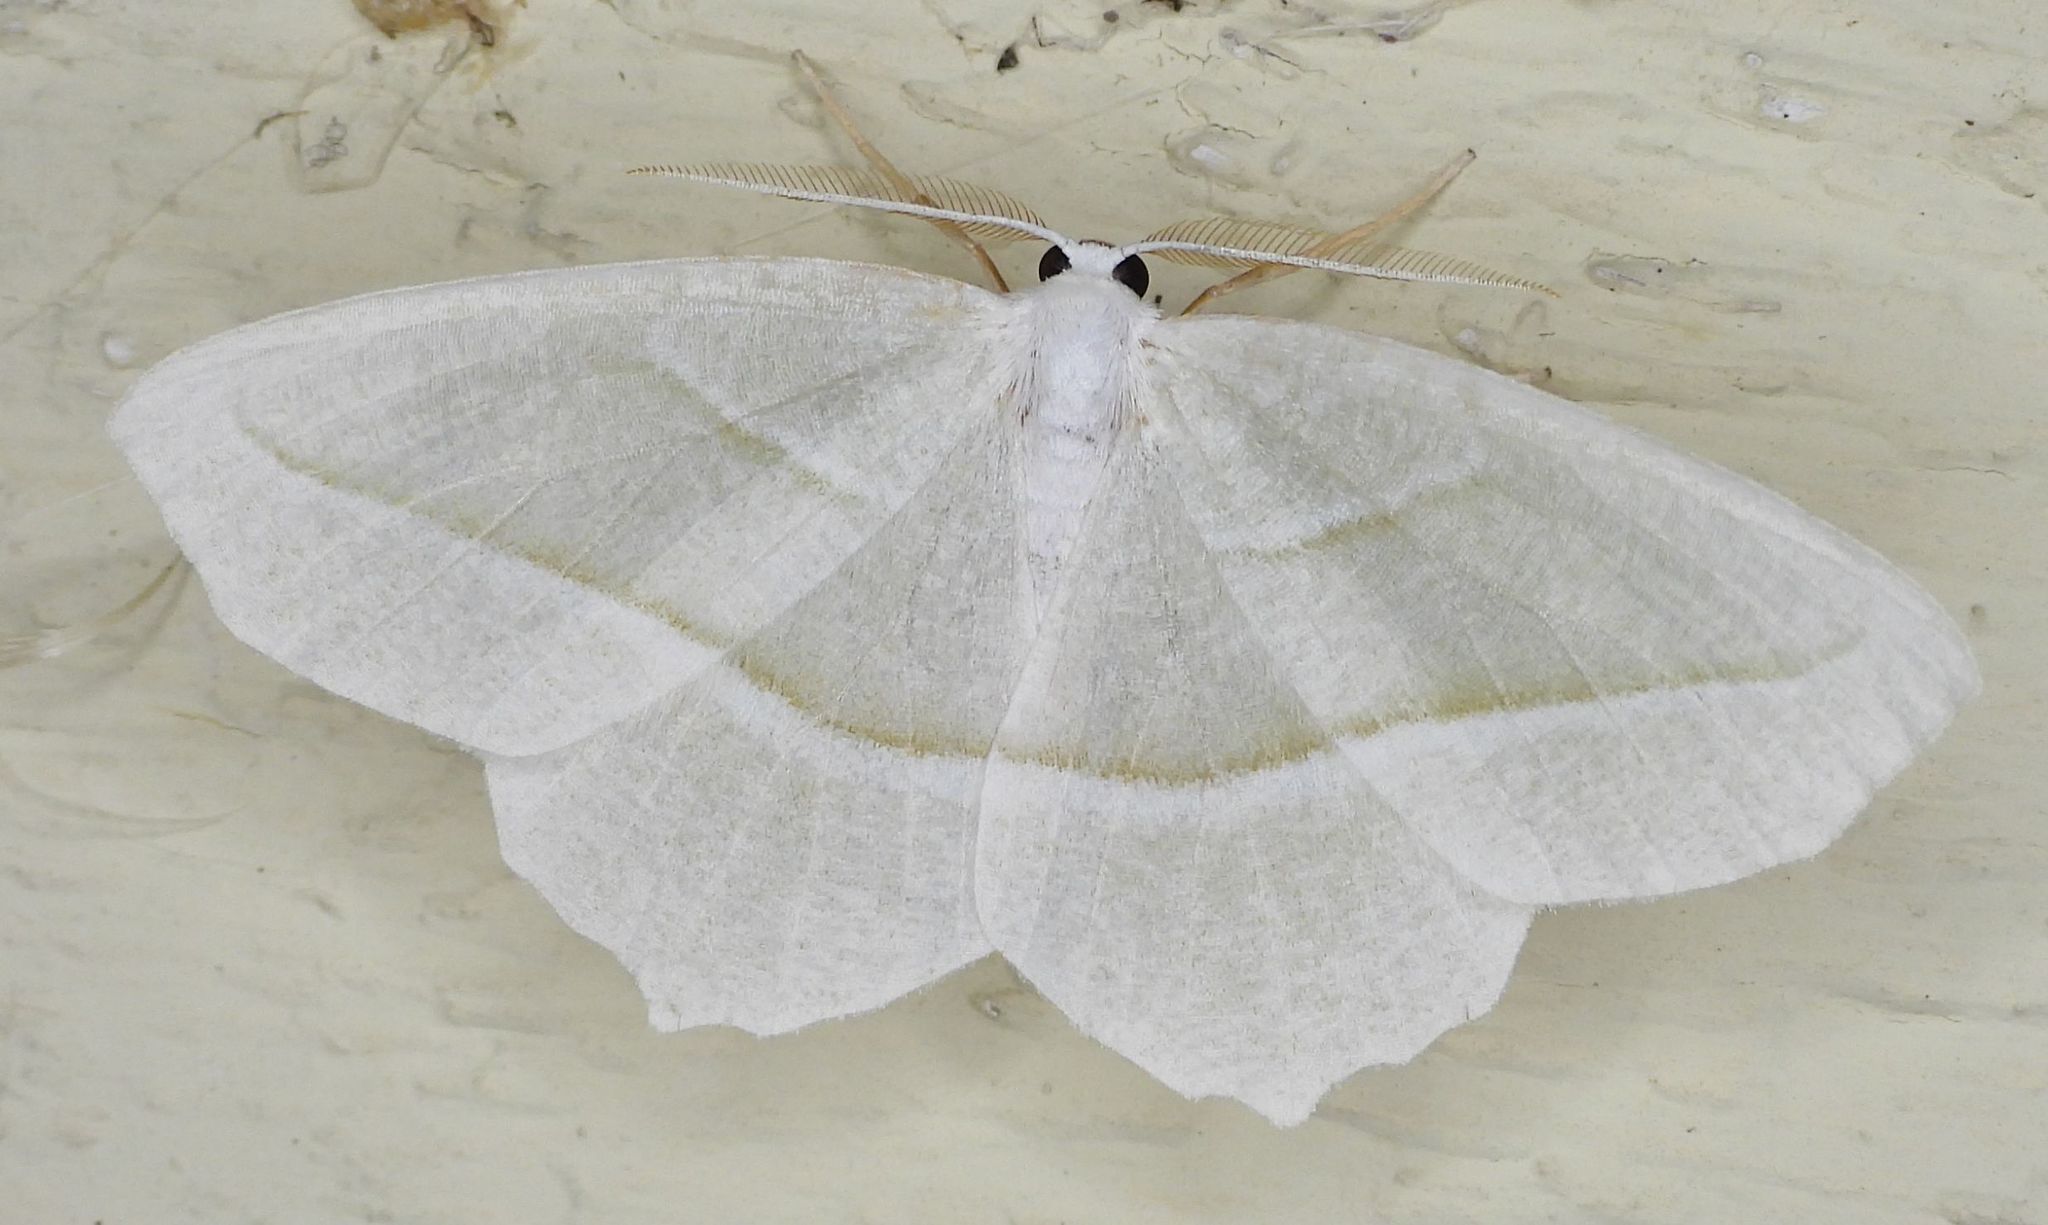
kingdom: Animalia
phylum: Arthropoda
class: Insecta
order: Lepidoptera
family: Geometridae
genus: Campaea
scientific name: Campaea perlata
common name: Fringed looper
